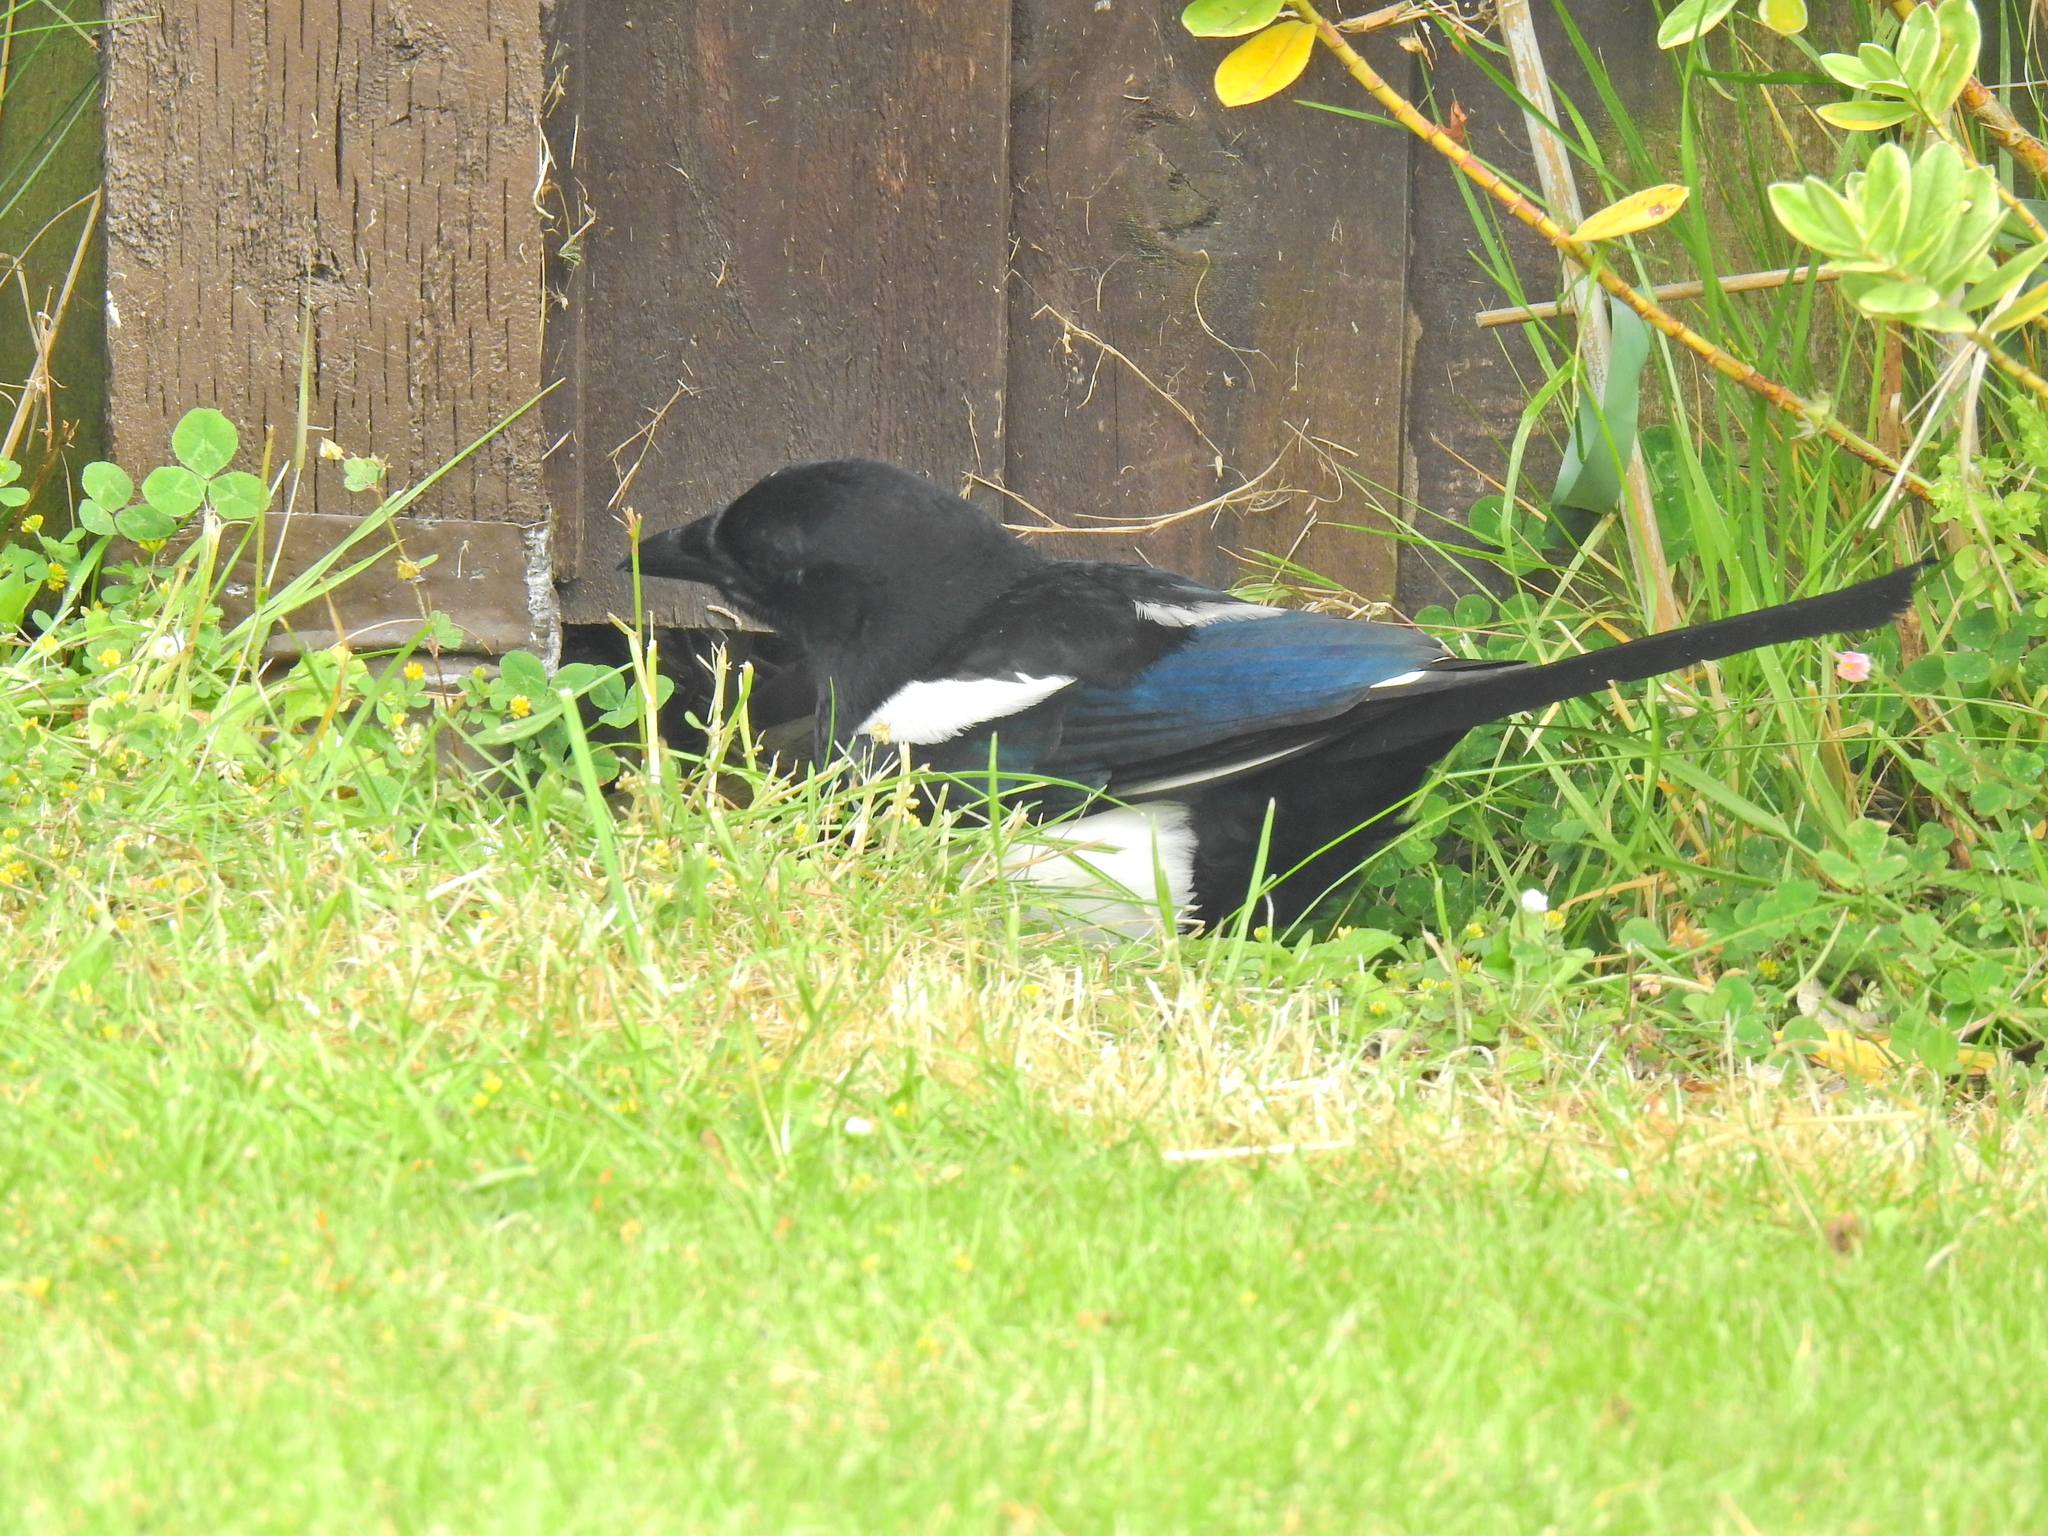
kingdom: Animalia
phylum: Chordata
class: Aves
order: Passeriformes
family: Corvidae
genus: Pica
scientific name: Pica pica
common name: Eurasian magpie
